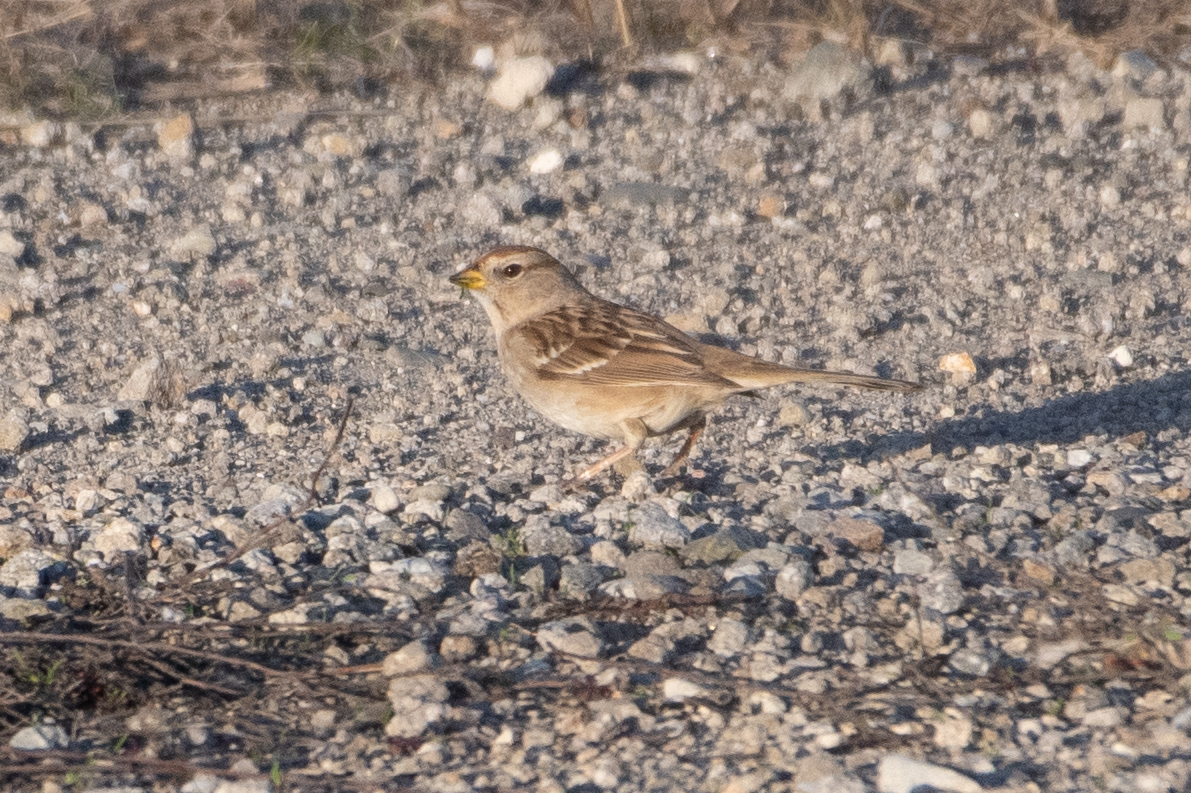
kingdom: Animalia
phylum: Chordata
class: Aves
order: Passeriformes
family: Passerellidae
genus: Zonotrichia
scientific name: Zonotrichia leucophrys
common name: White-crowned sparrow
